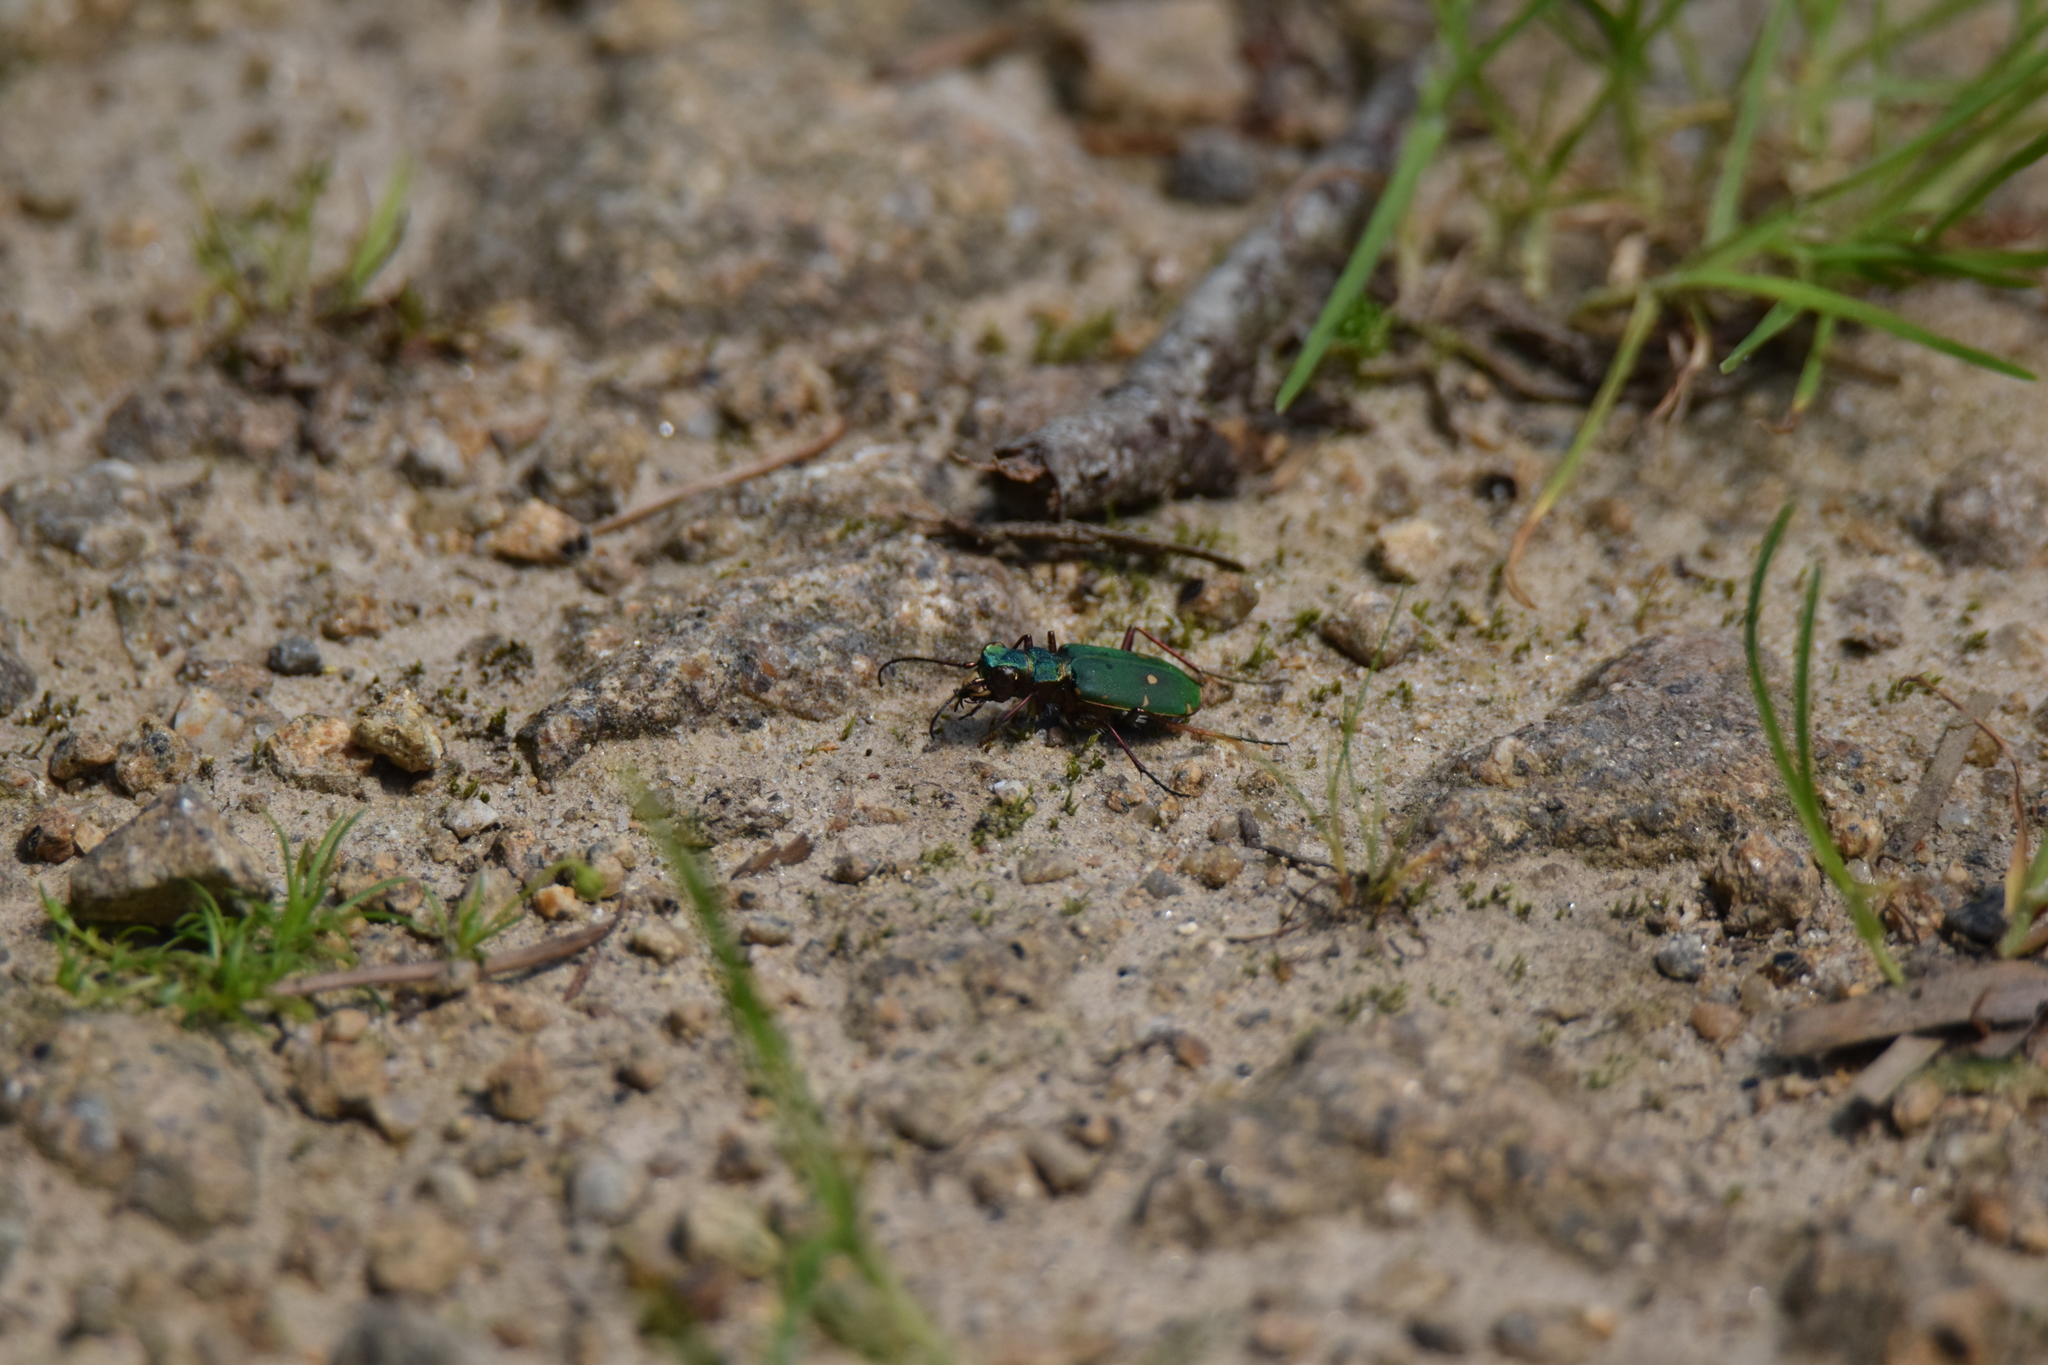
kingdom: Animalia
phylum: Arthropoda
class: Insecta
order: Coleoptera
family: Carabidae
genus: Cicindela
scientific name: Cicindela campestris
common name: Common tiger beetle
